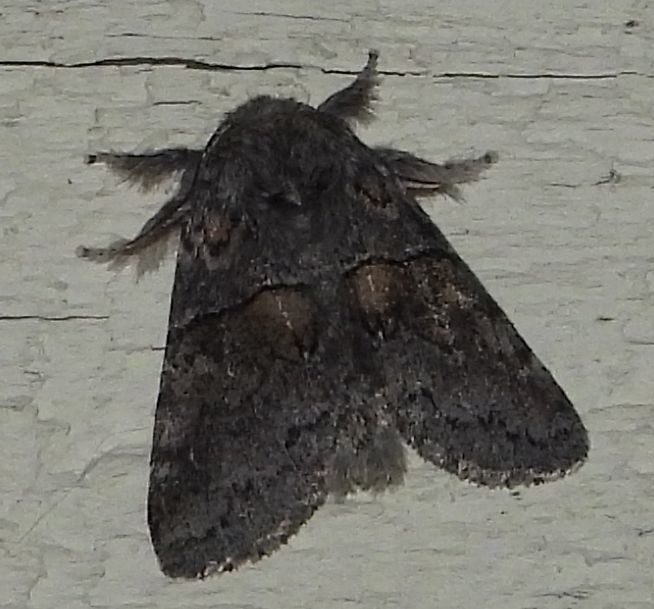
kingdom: Animalia
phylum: Arthropoda
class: Insecta
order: Lepidoptera
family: Notodontidae
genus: Gluphisia
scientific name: Gluphisia septentrionis
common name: Common gluphisia
